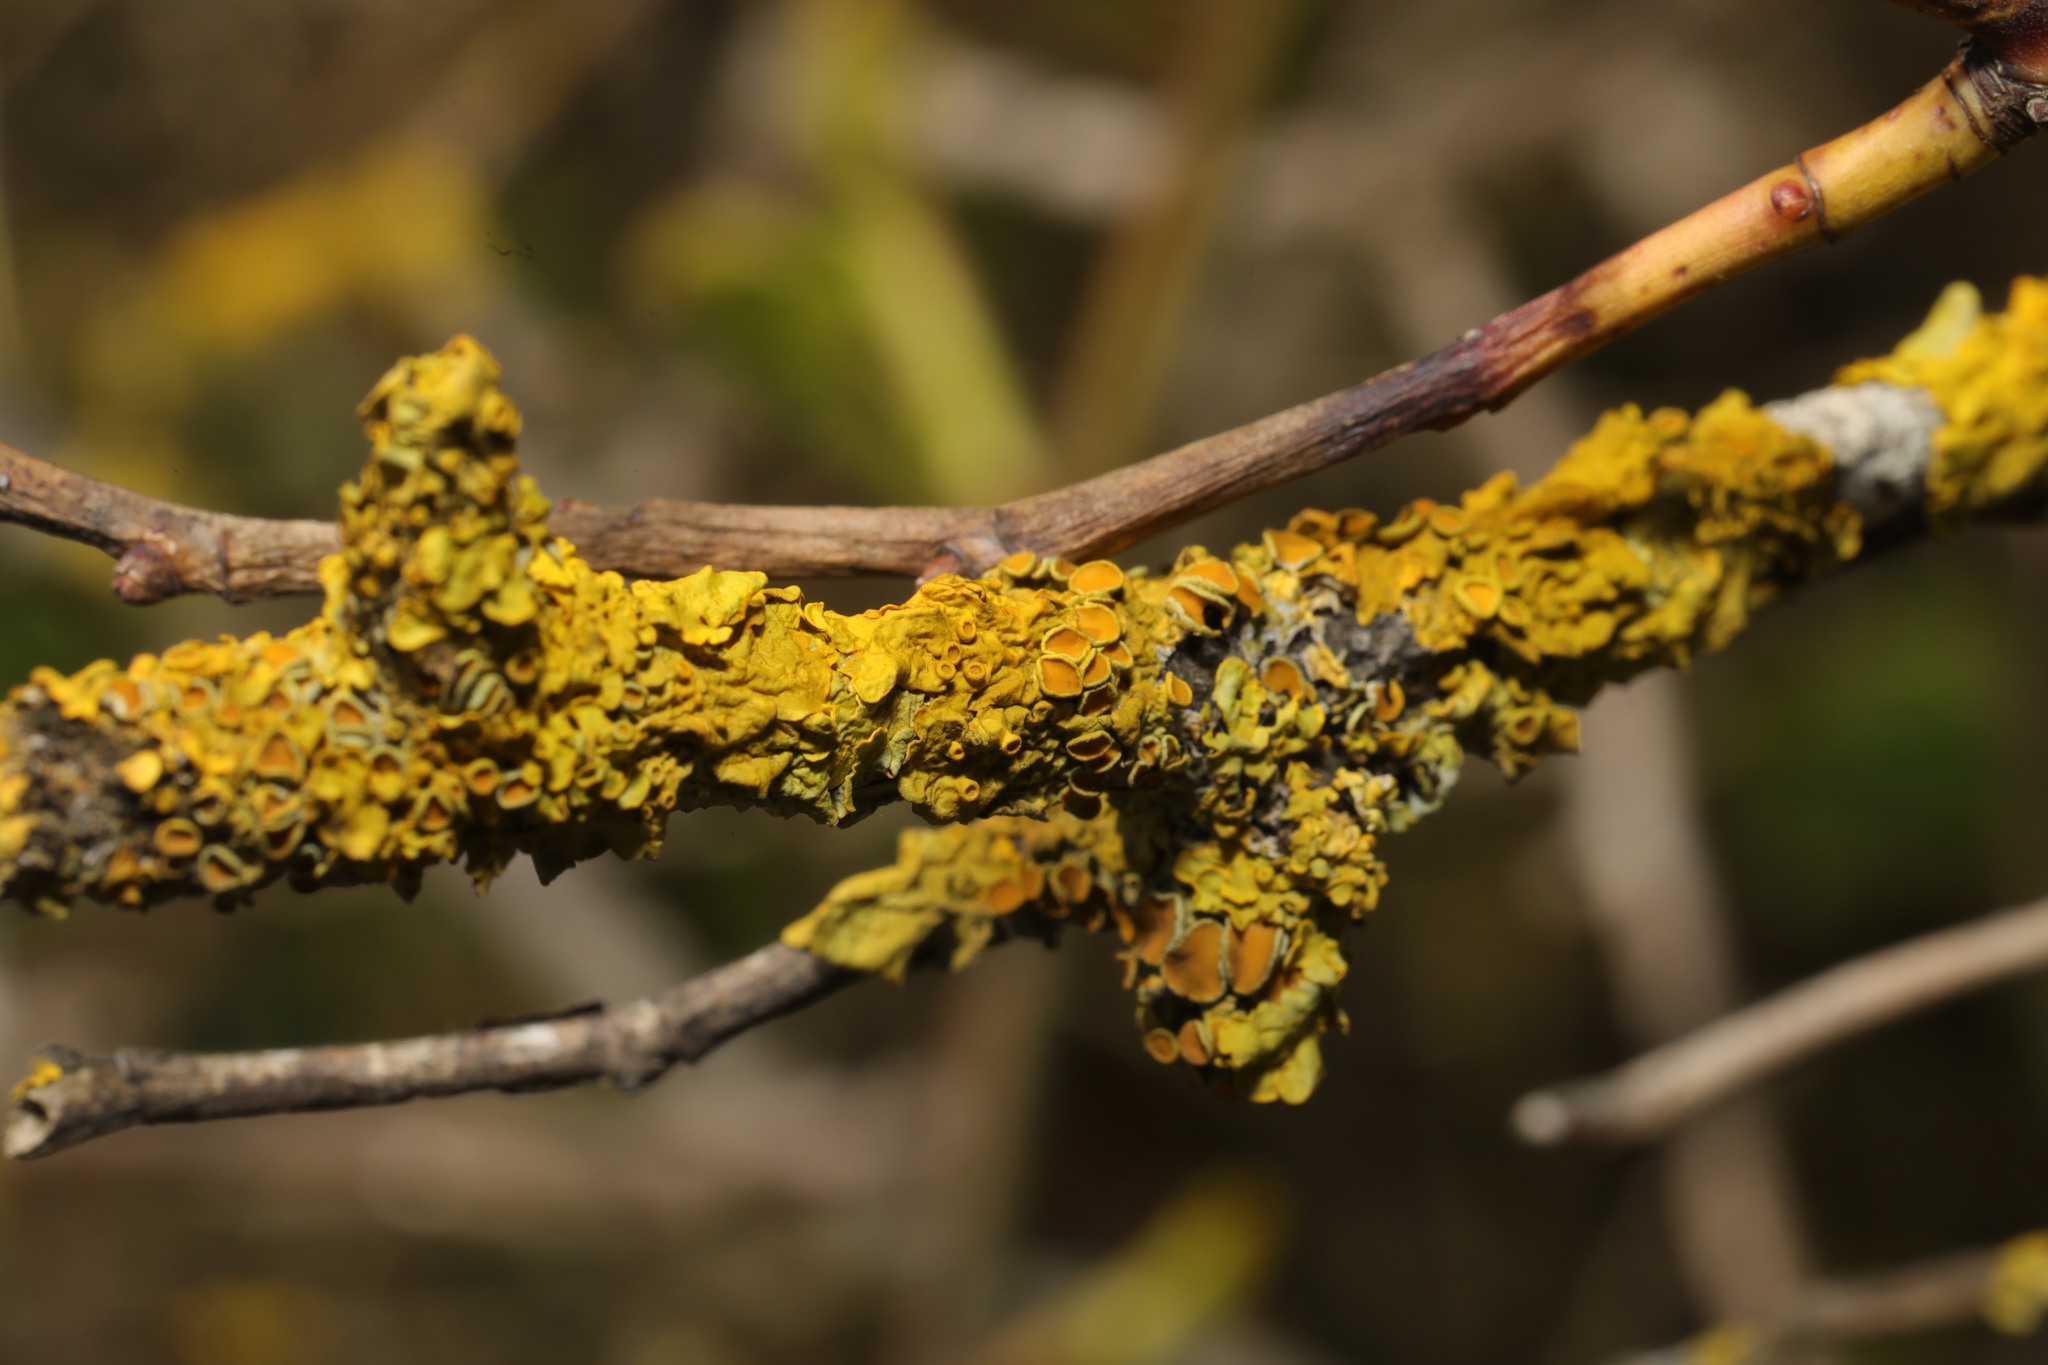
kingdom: Fungi
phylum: Ascomycota
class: Lecanoromycetes
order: Teloschistales
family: Teloschistaceae
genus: Xanthoria
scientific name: Xanthoria parietina
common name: Common orange lichen
